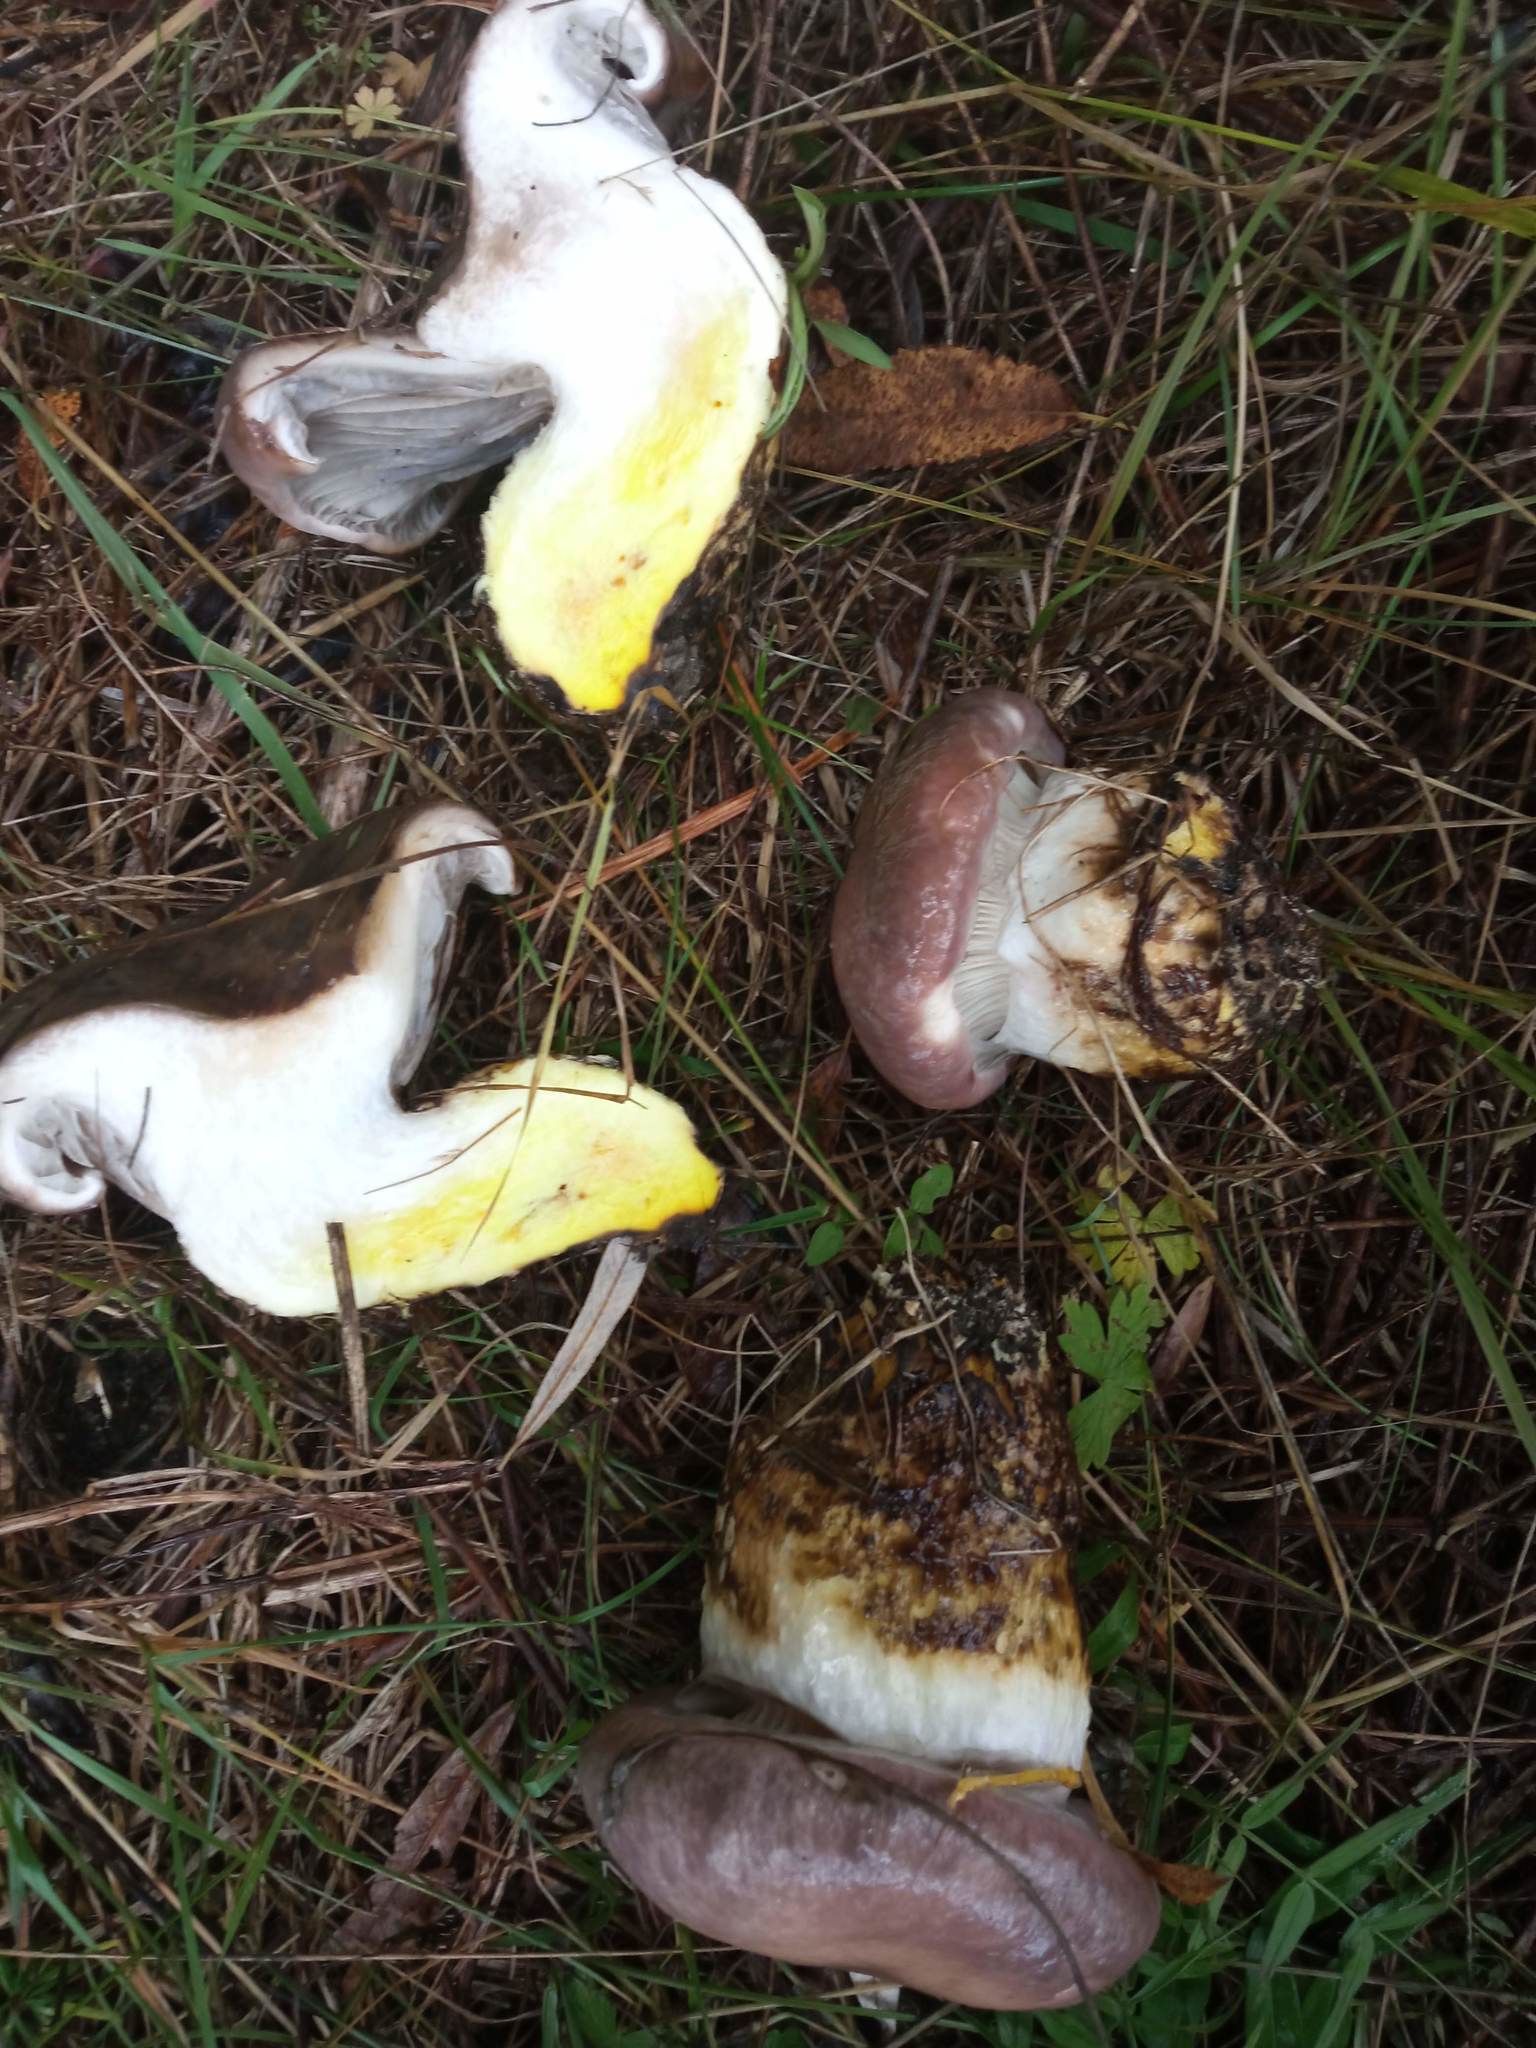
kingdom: Fungi
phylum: Basidiomycota
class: Agaricomycetes
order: Boletales
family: Gomphidiaceae
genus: Gomphidius
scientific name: Gomphidius glutinosus
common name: Slimy spike
